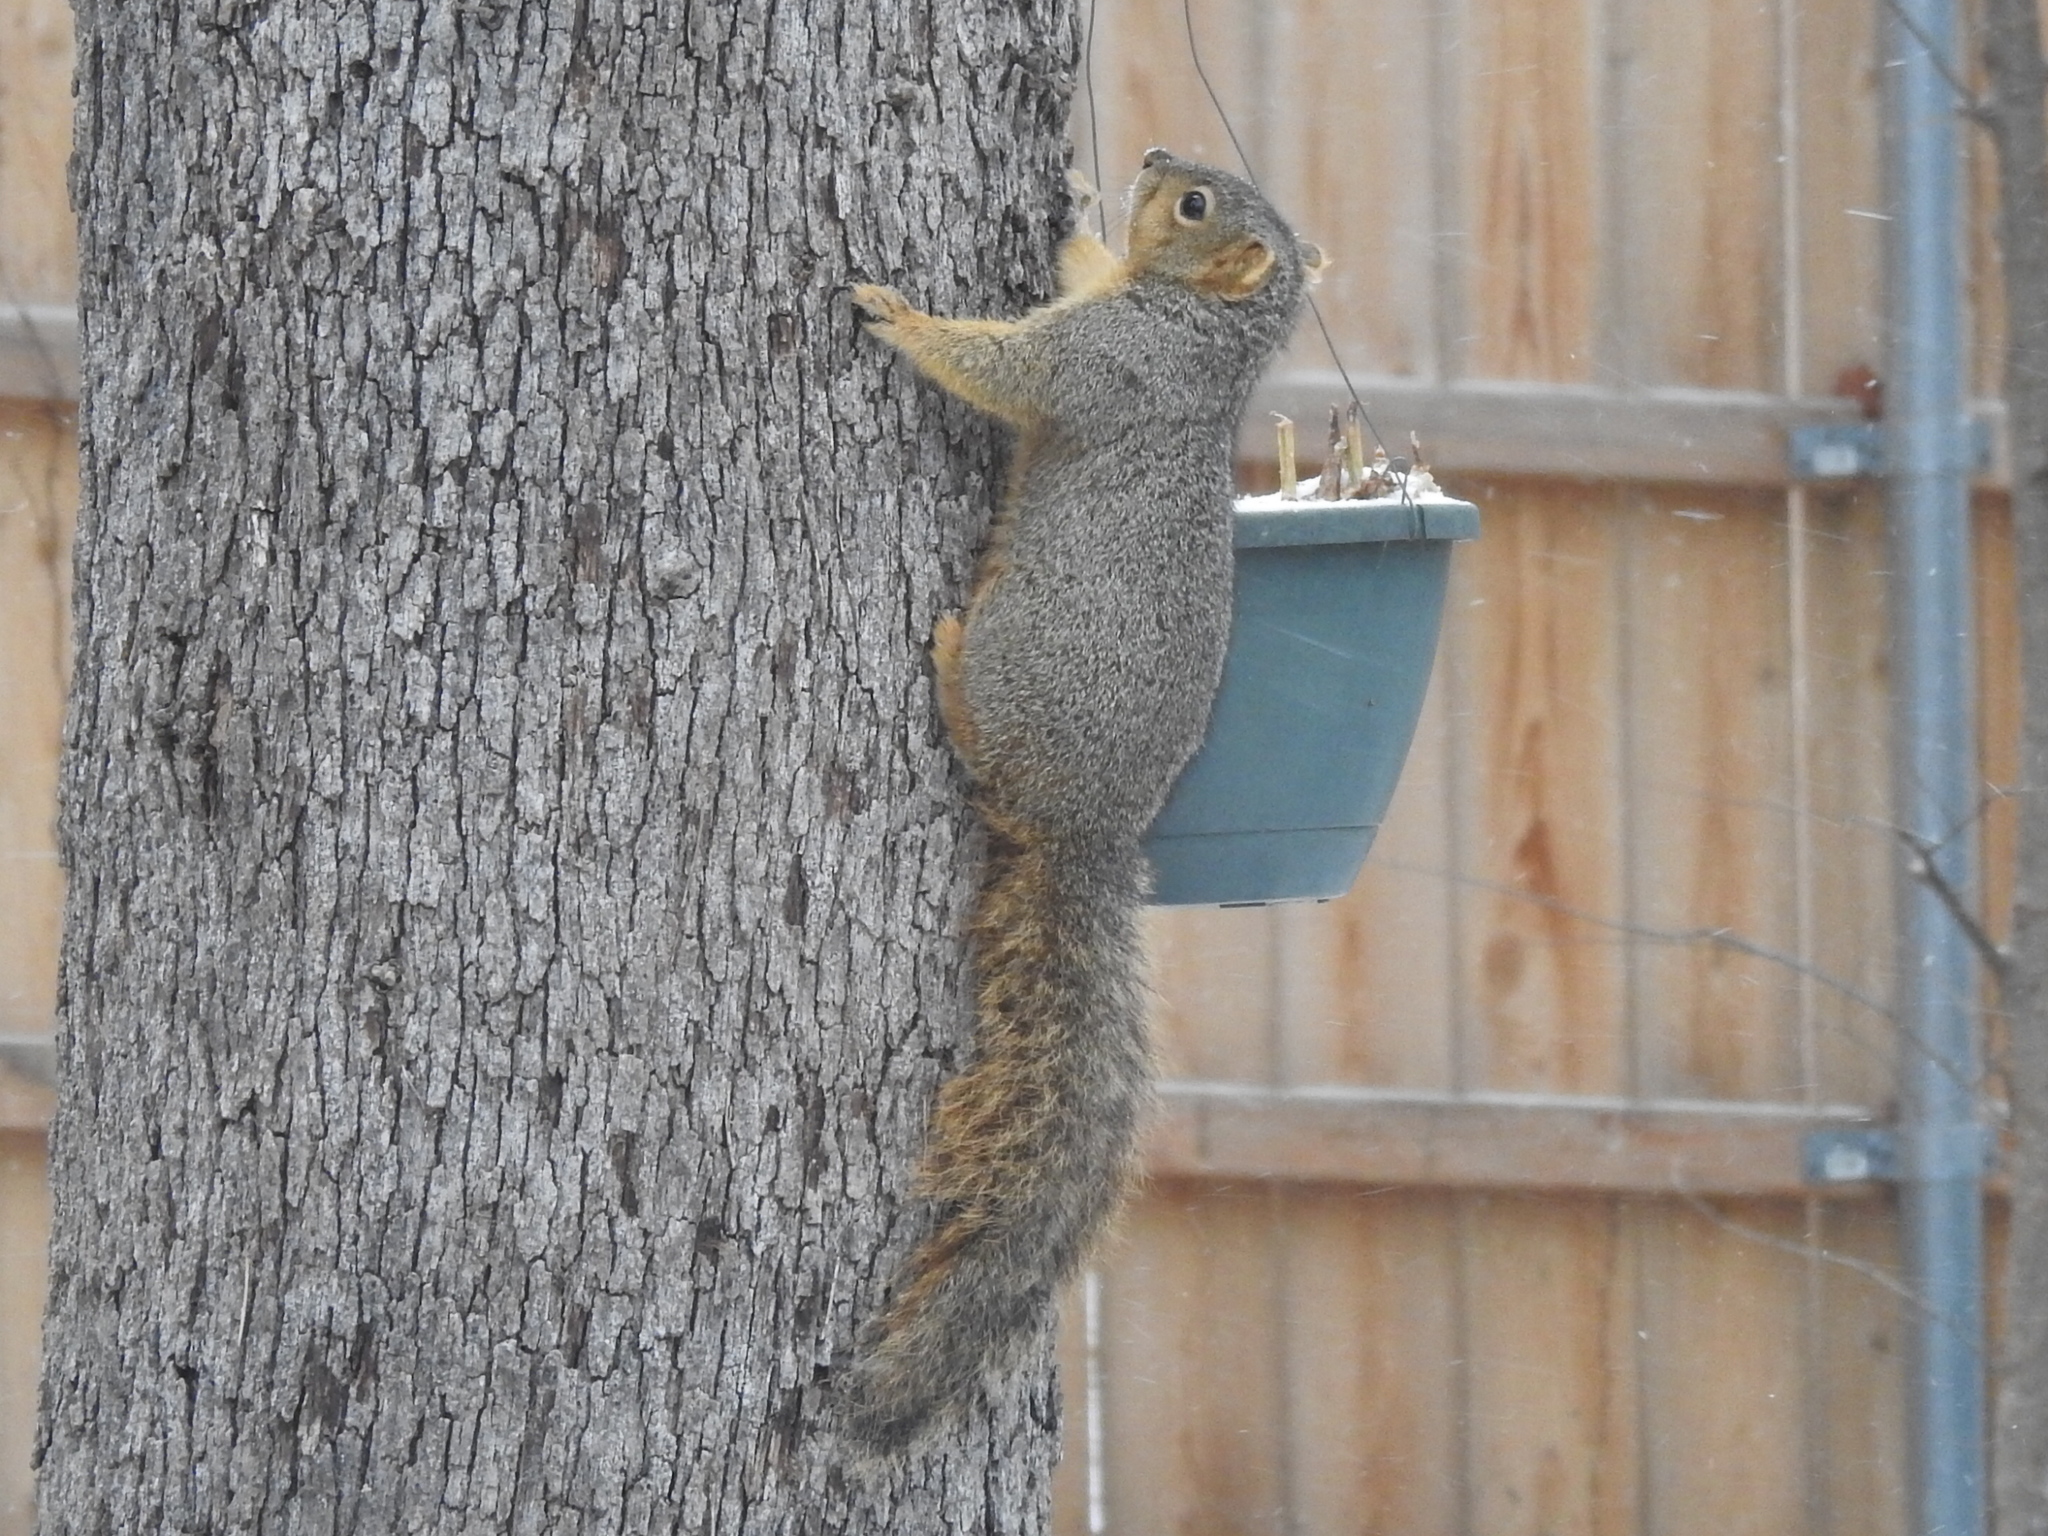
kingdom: Animalia
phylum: Chordata
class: Mammalia
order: Rodentia
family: Sciuridae
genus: Sciurus
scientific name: Sciurus niger
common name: Fox squirrel
